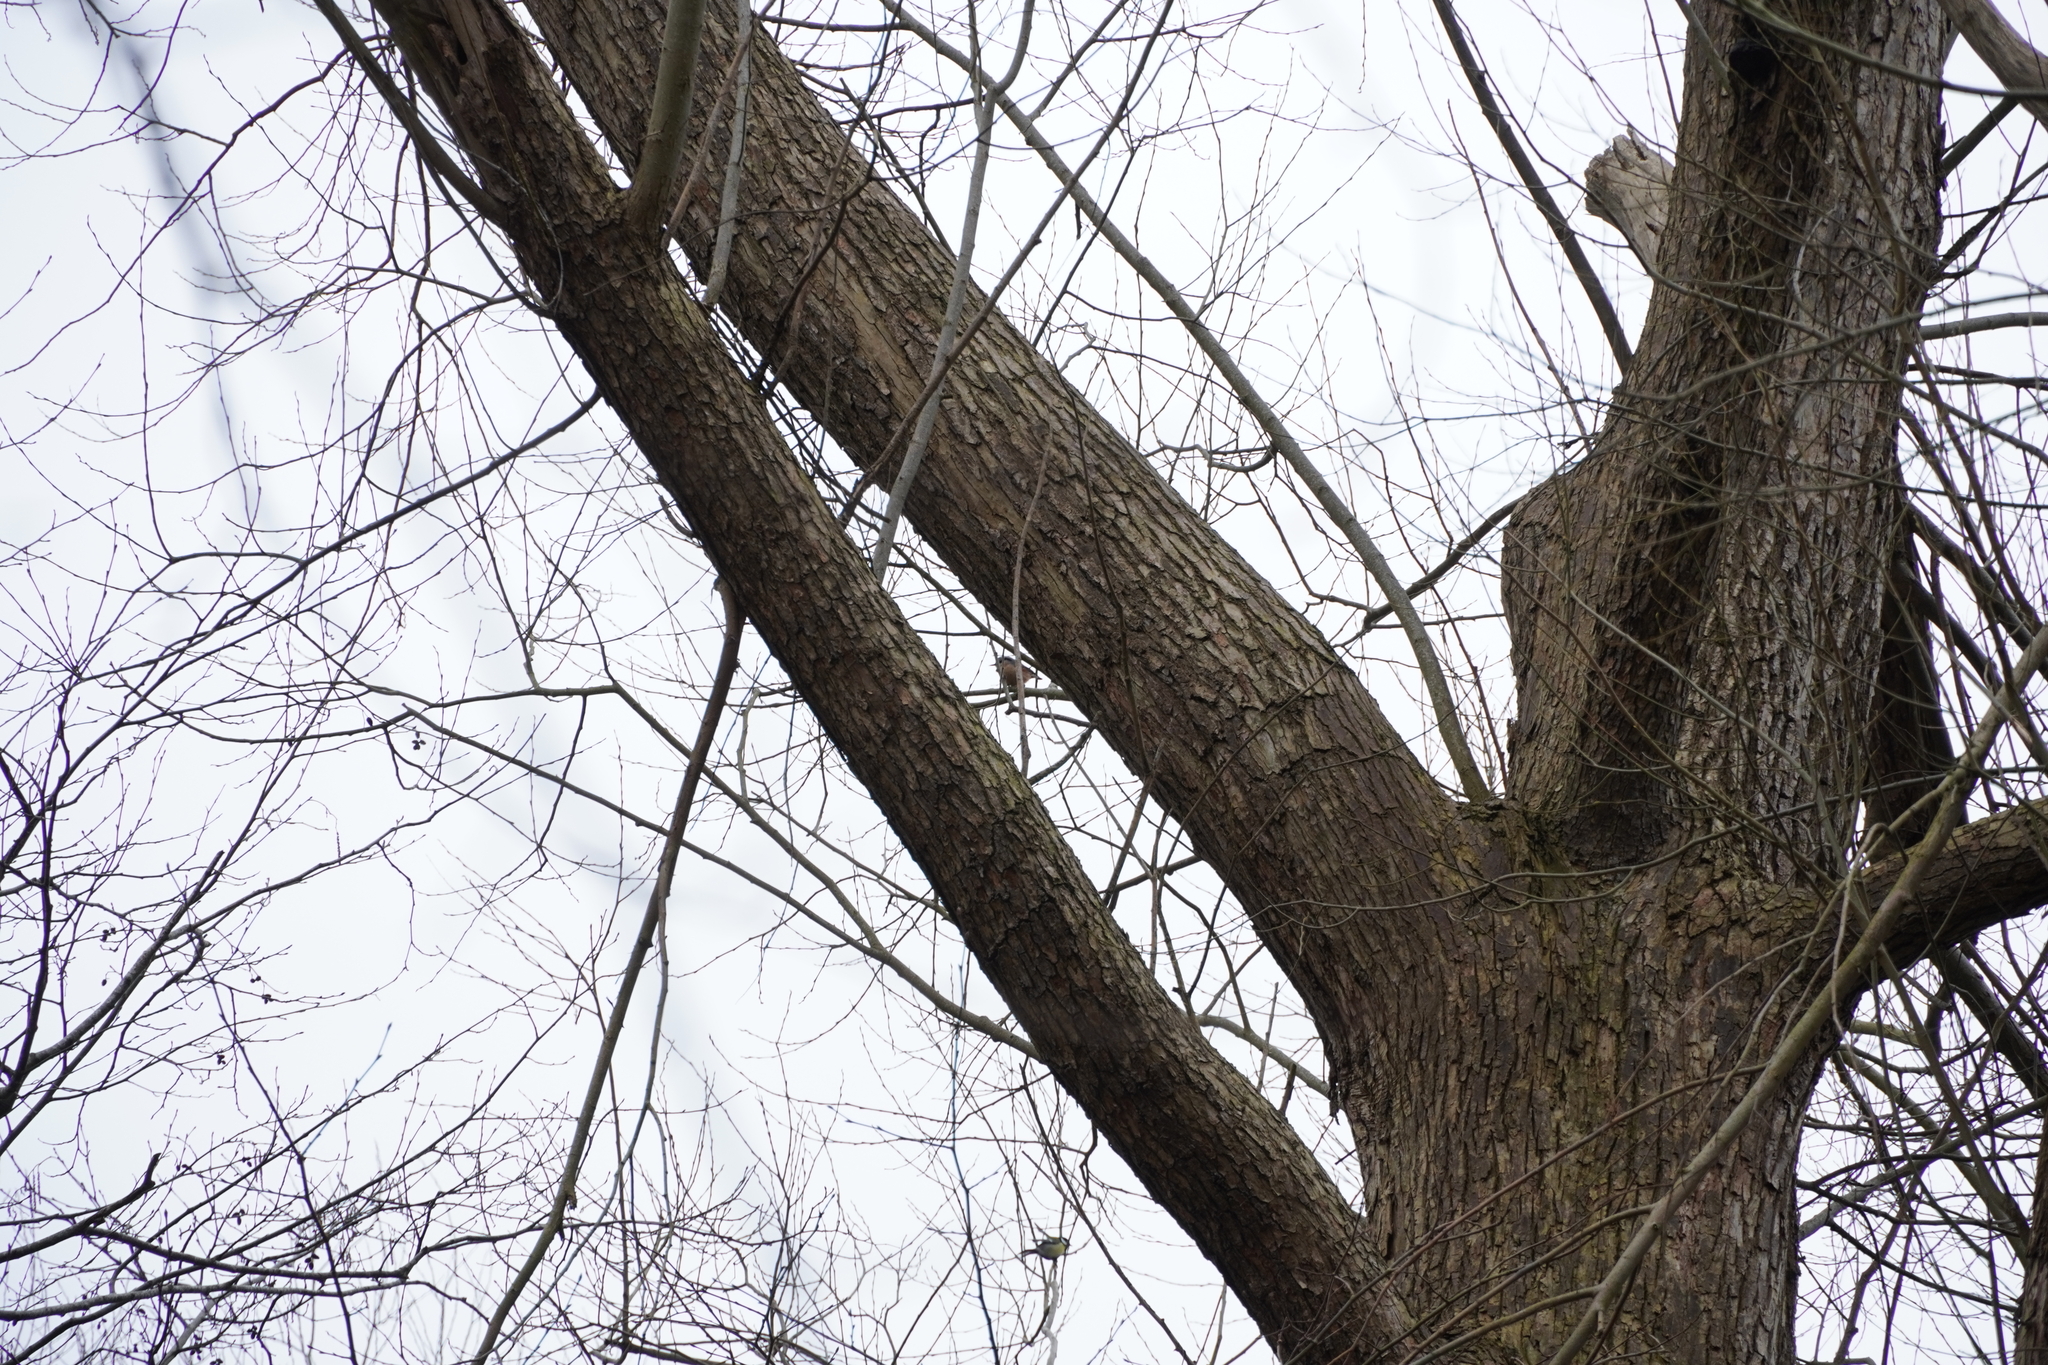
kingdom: Animalia
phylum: Chordata
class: Aves
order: Passeriformes
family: Sittidae
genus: Sitta
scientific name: Sitta europaea
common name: Eurasian nuthatch
